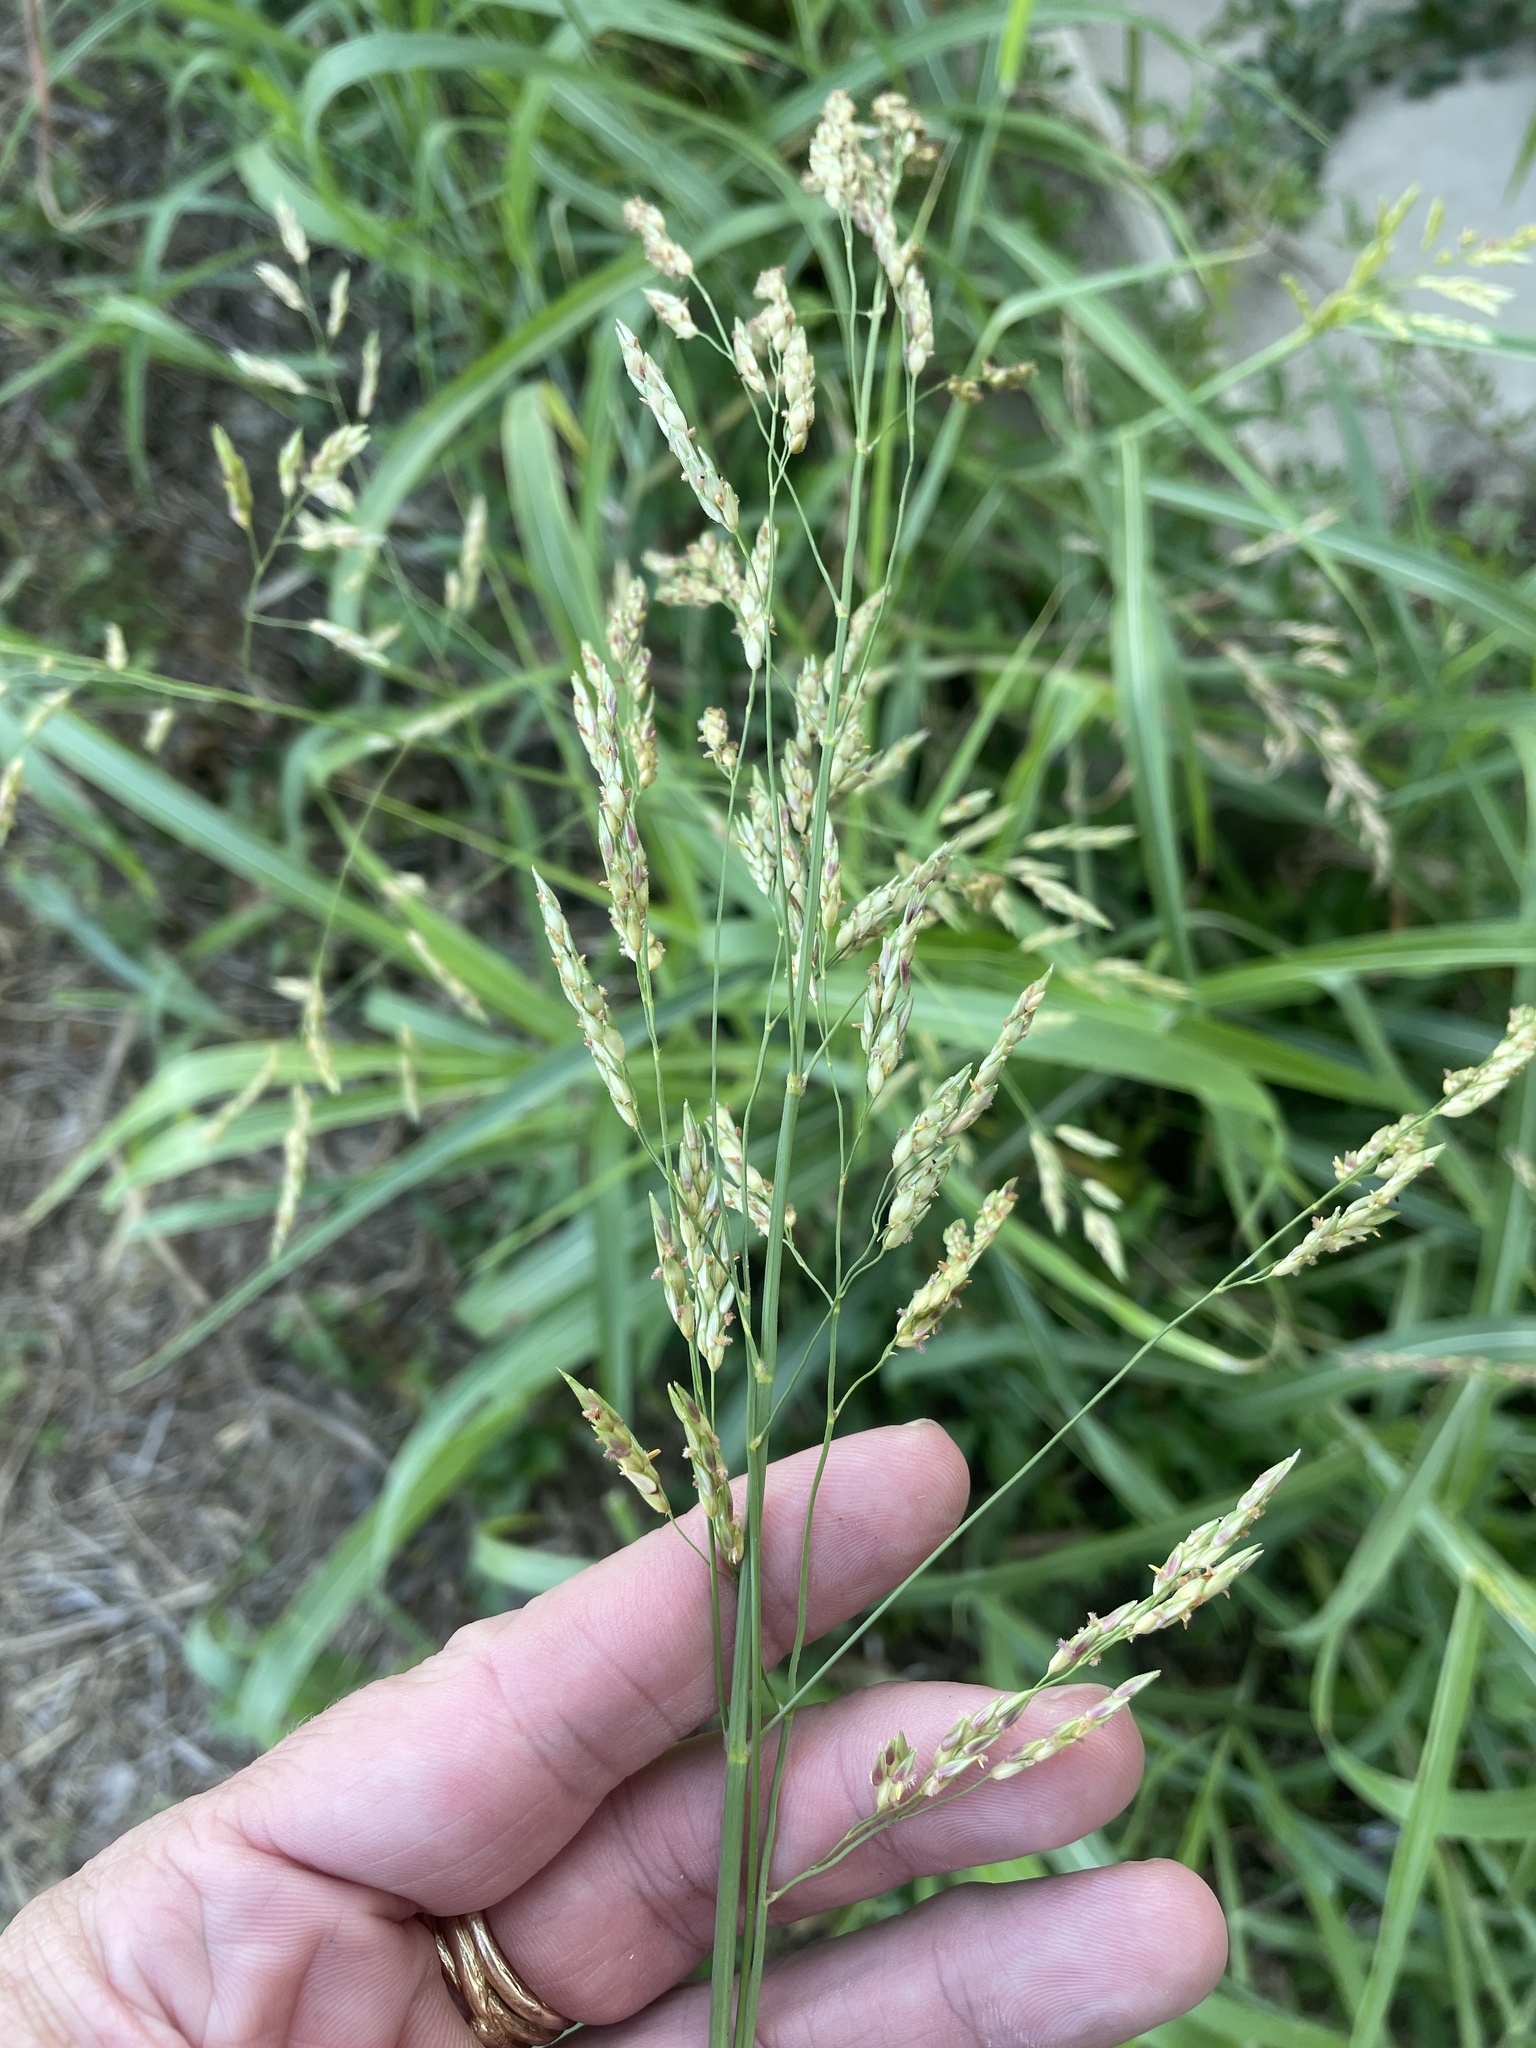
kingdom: Plantae
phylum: Tracheophyta
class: Liliopsida
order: Poales
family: Poaceae
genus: Sorghum
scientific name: Sorghum halepense
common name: Johnson-grass
